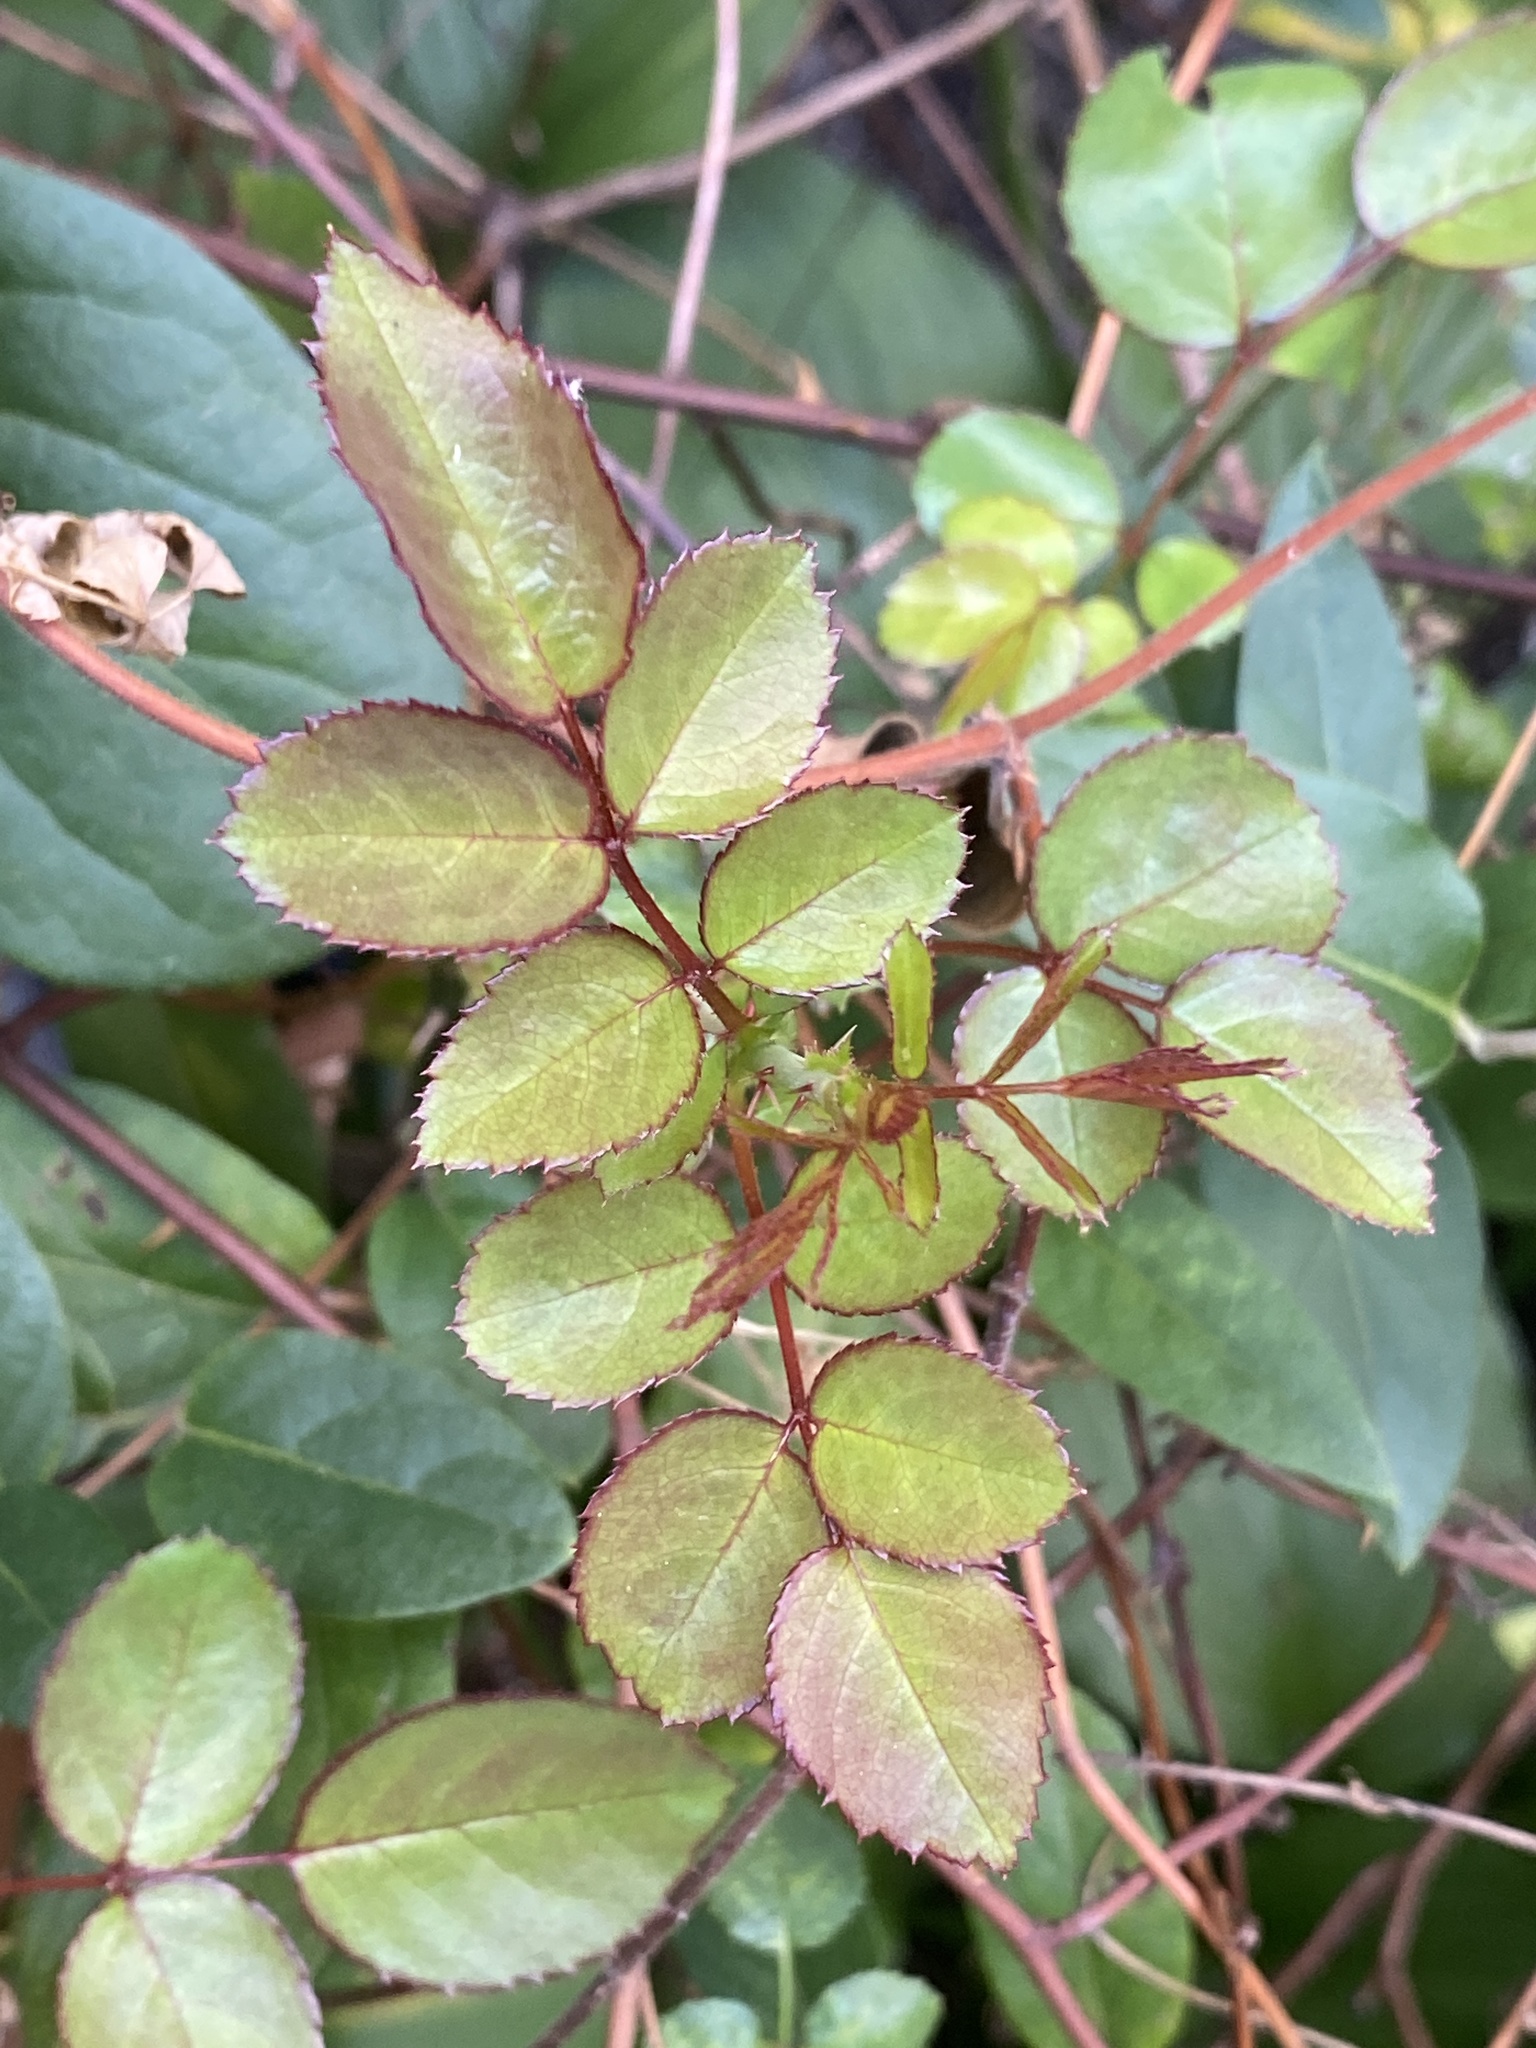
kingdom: Plantae
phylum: Tracheophyta
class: Magnoliopsida
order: Rosales
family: Rosaceae
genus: Rosa
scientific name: Rosa multiflora
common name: Multiflora rose
